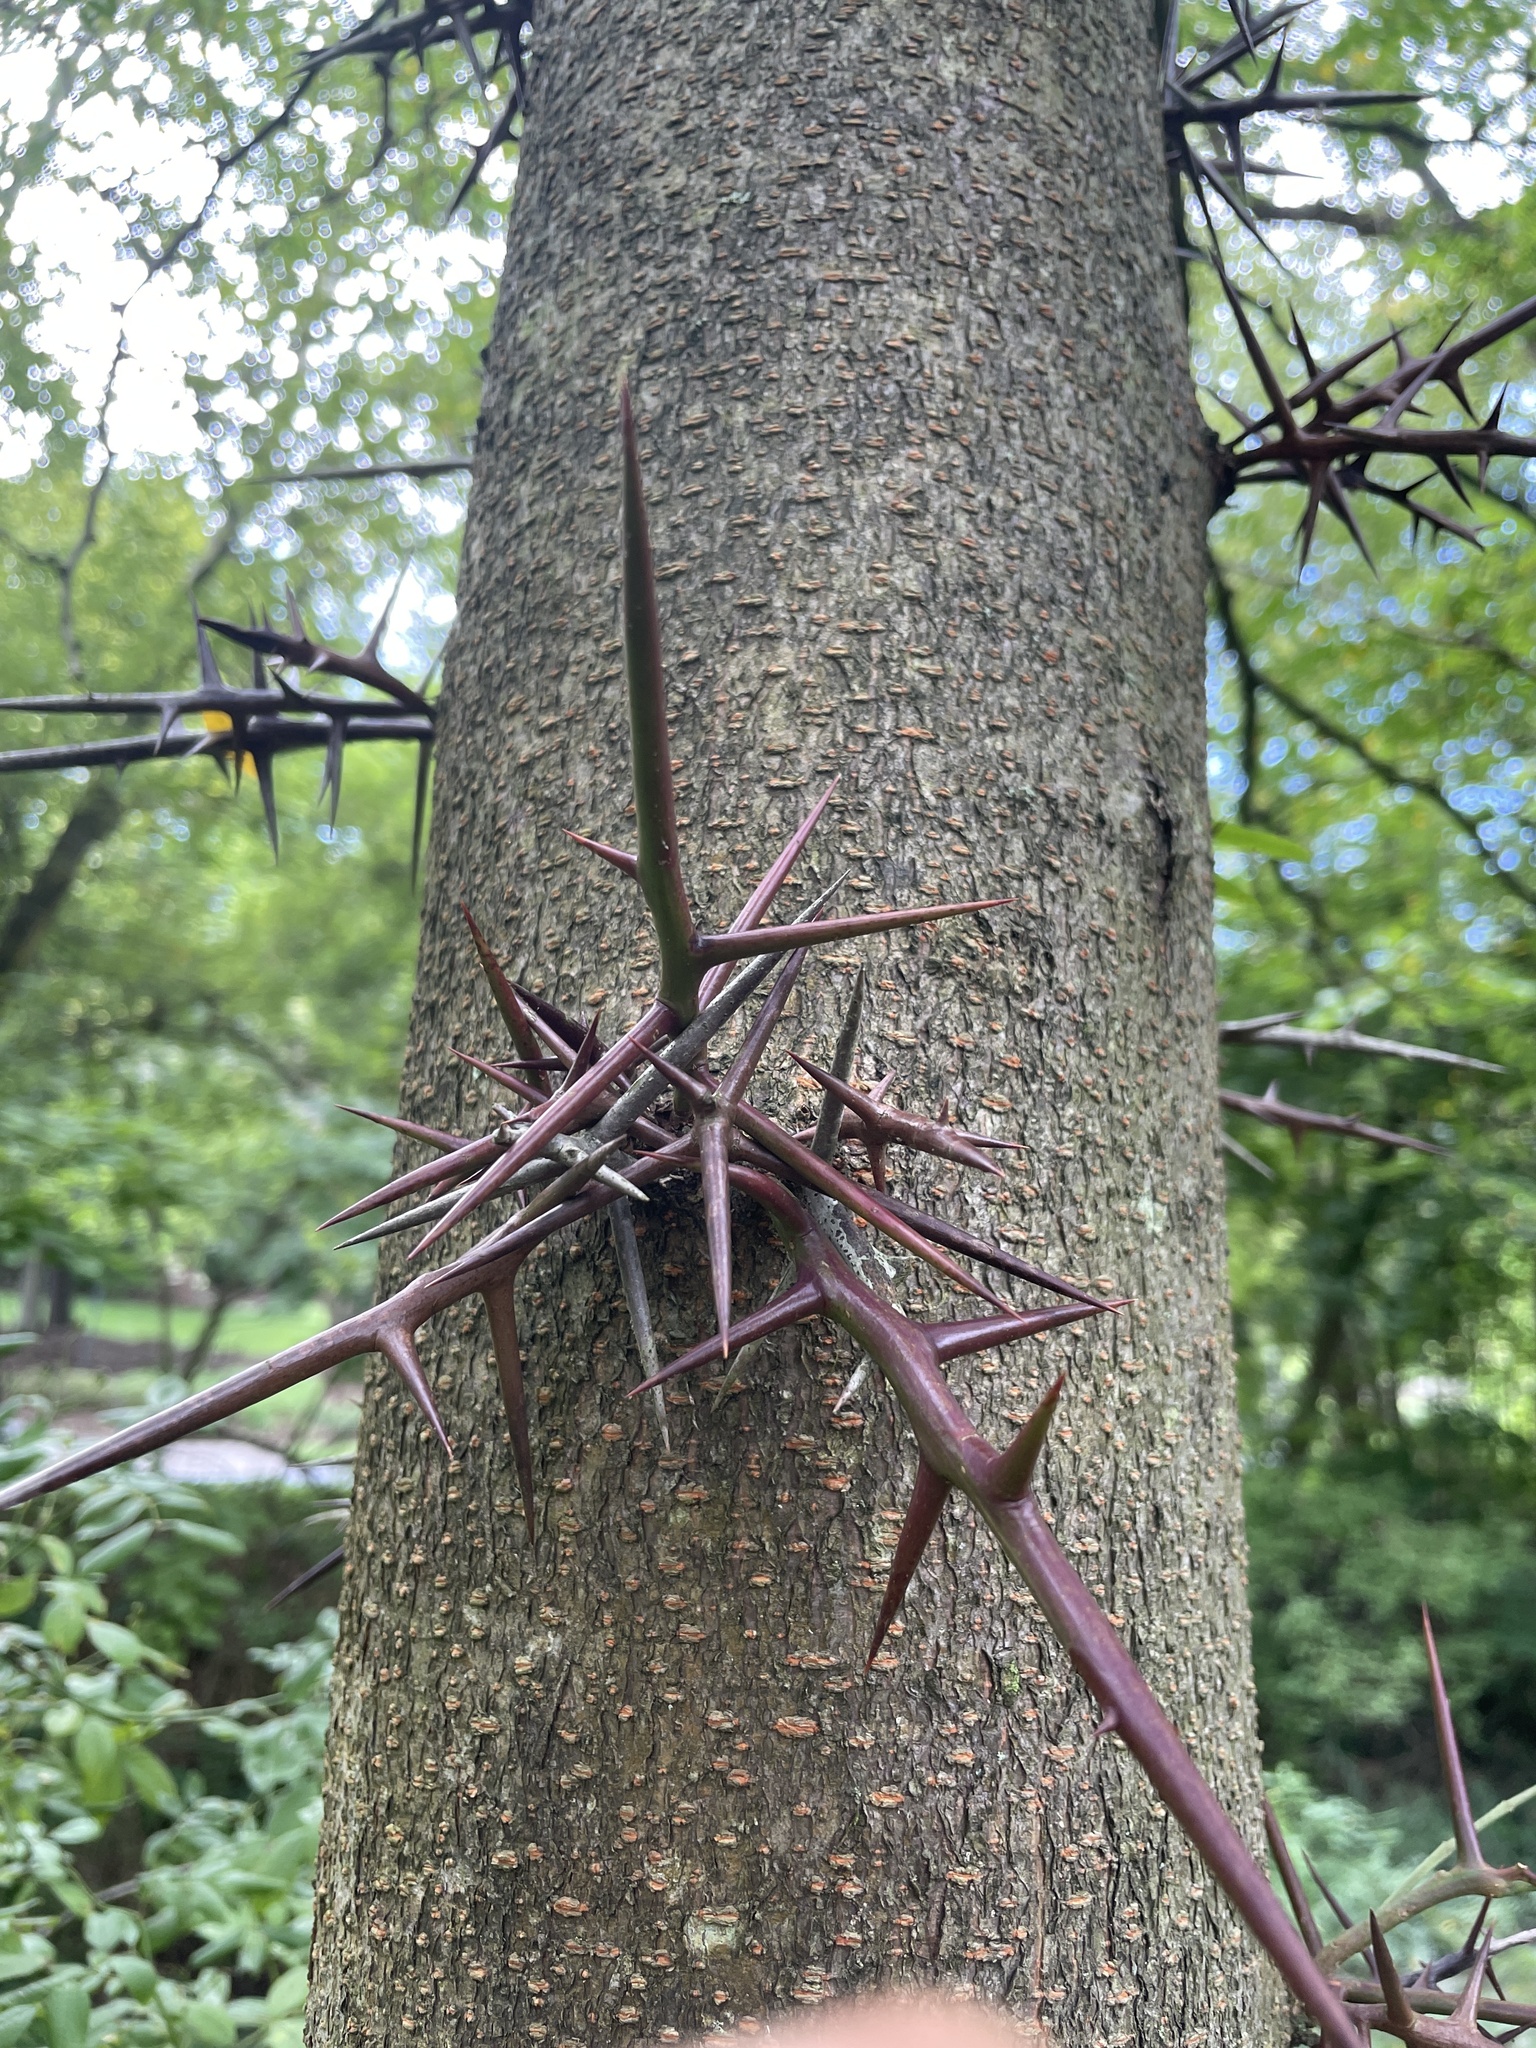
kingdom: Plantae
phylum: Tracheophyta
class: Magnoliopsida
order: Fabales
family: Fabaceae
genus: Gleditsia
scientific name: Gleditsia triacanthos
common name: Common honeylocust
